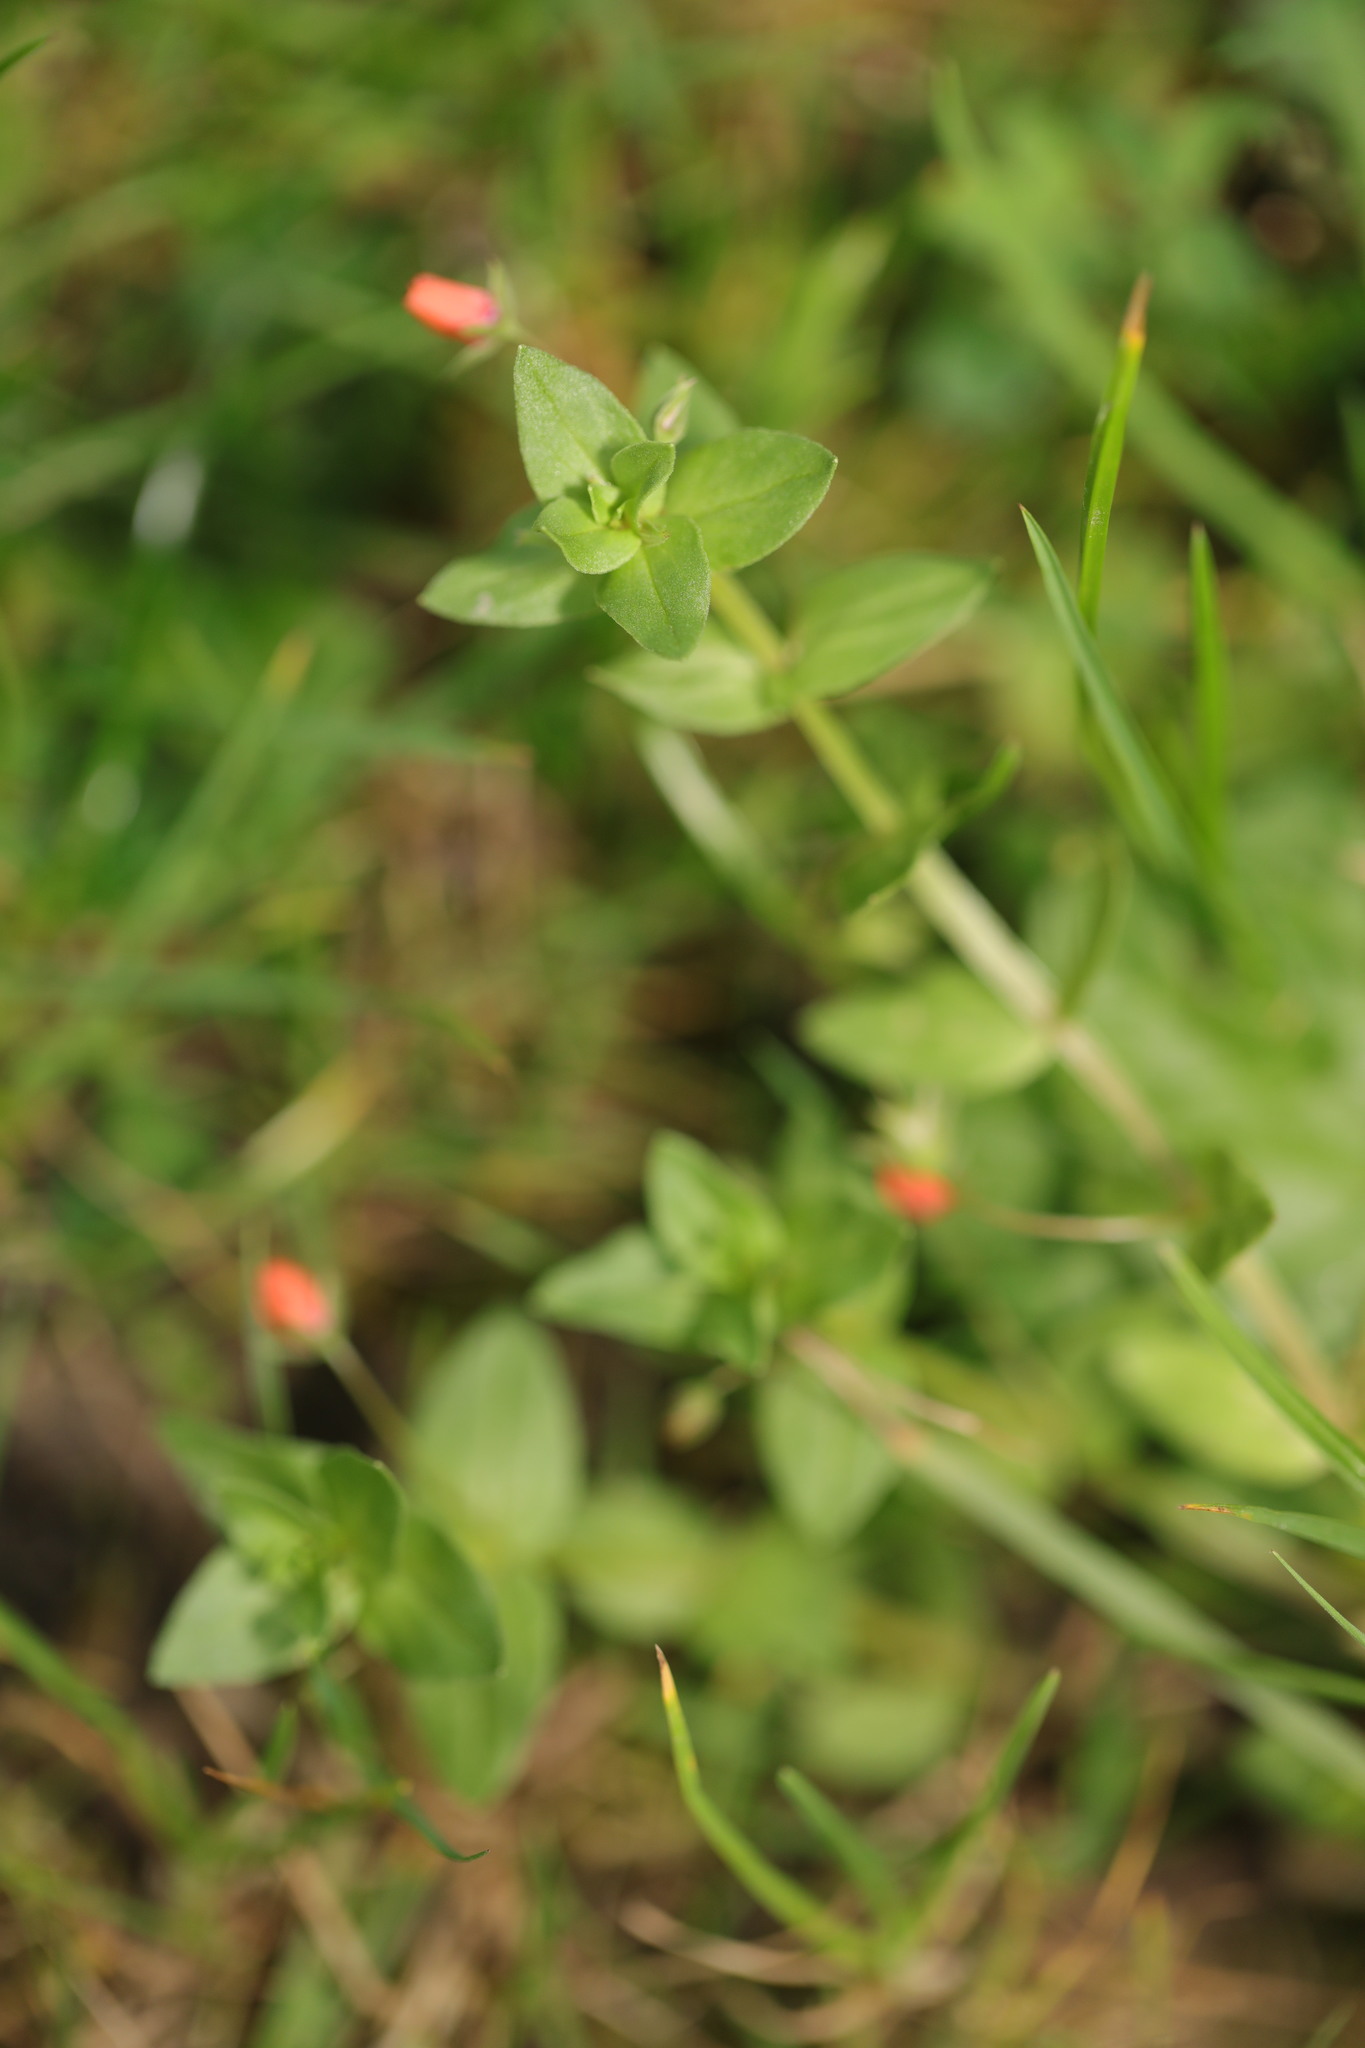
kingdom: Plantae
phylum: Tracheophyta
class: Magnoliopsida
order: Ericales
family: Primulaceae
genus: Lysimachia
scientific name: Lysimachia arvensis
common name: Scarlet pimpernel
